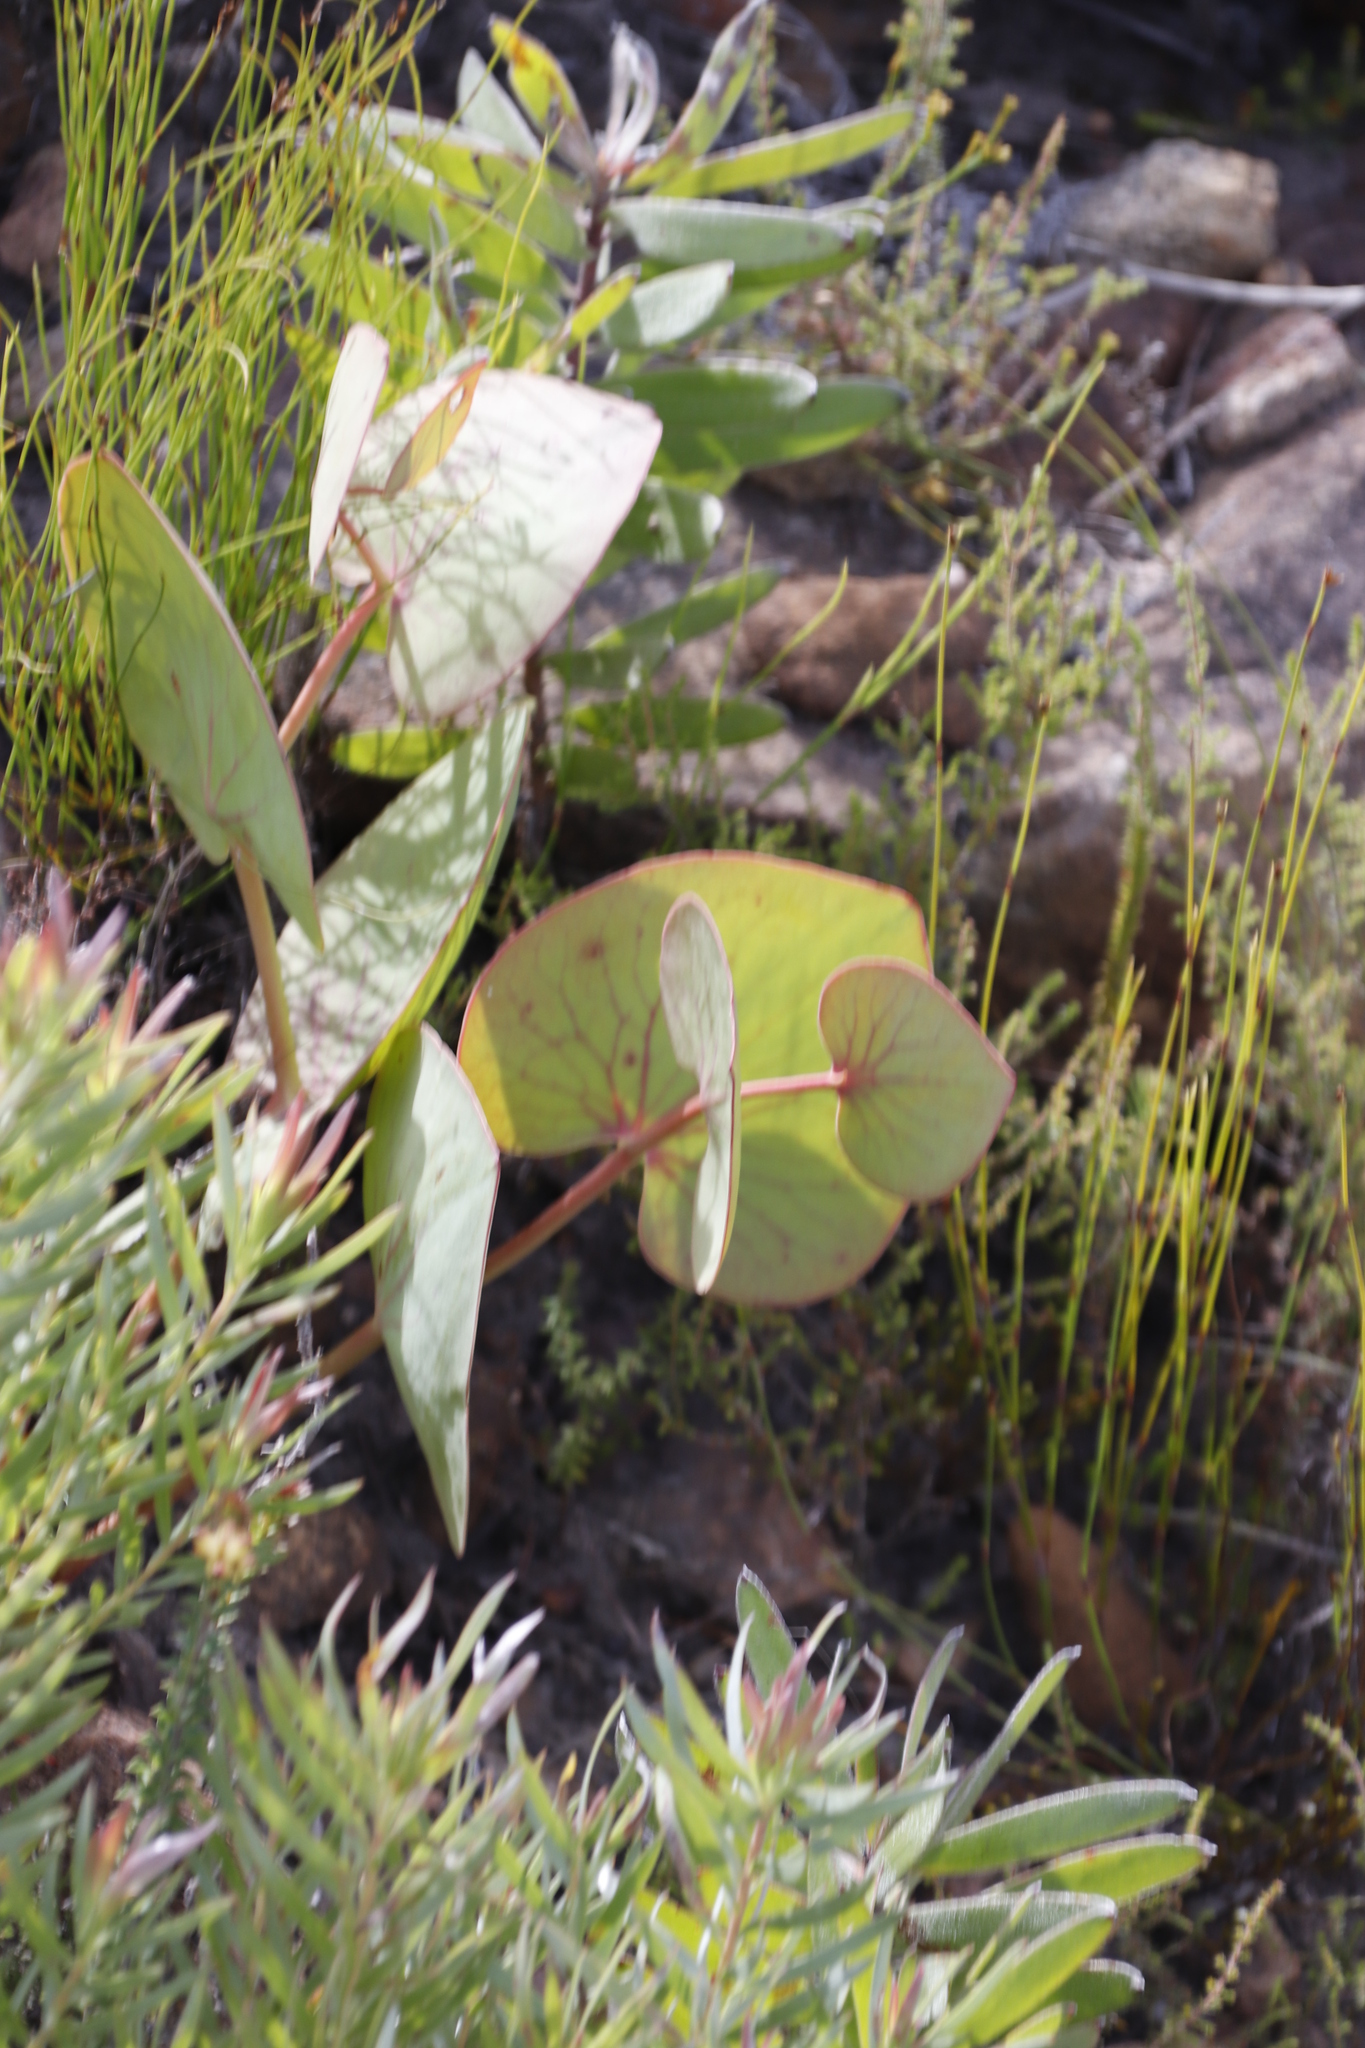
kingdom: Plantae
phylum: Tracheophyta
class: Magnoliopsida
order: Proteales
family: Proteaceae
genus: Protea
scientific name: Protea cordata
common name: Heart-leaf sugarbush
